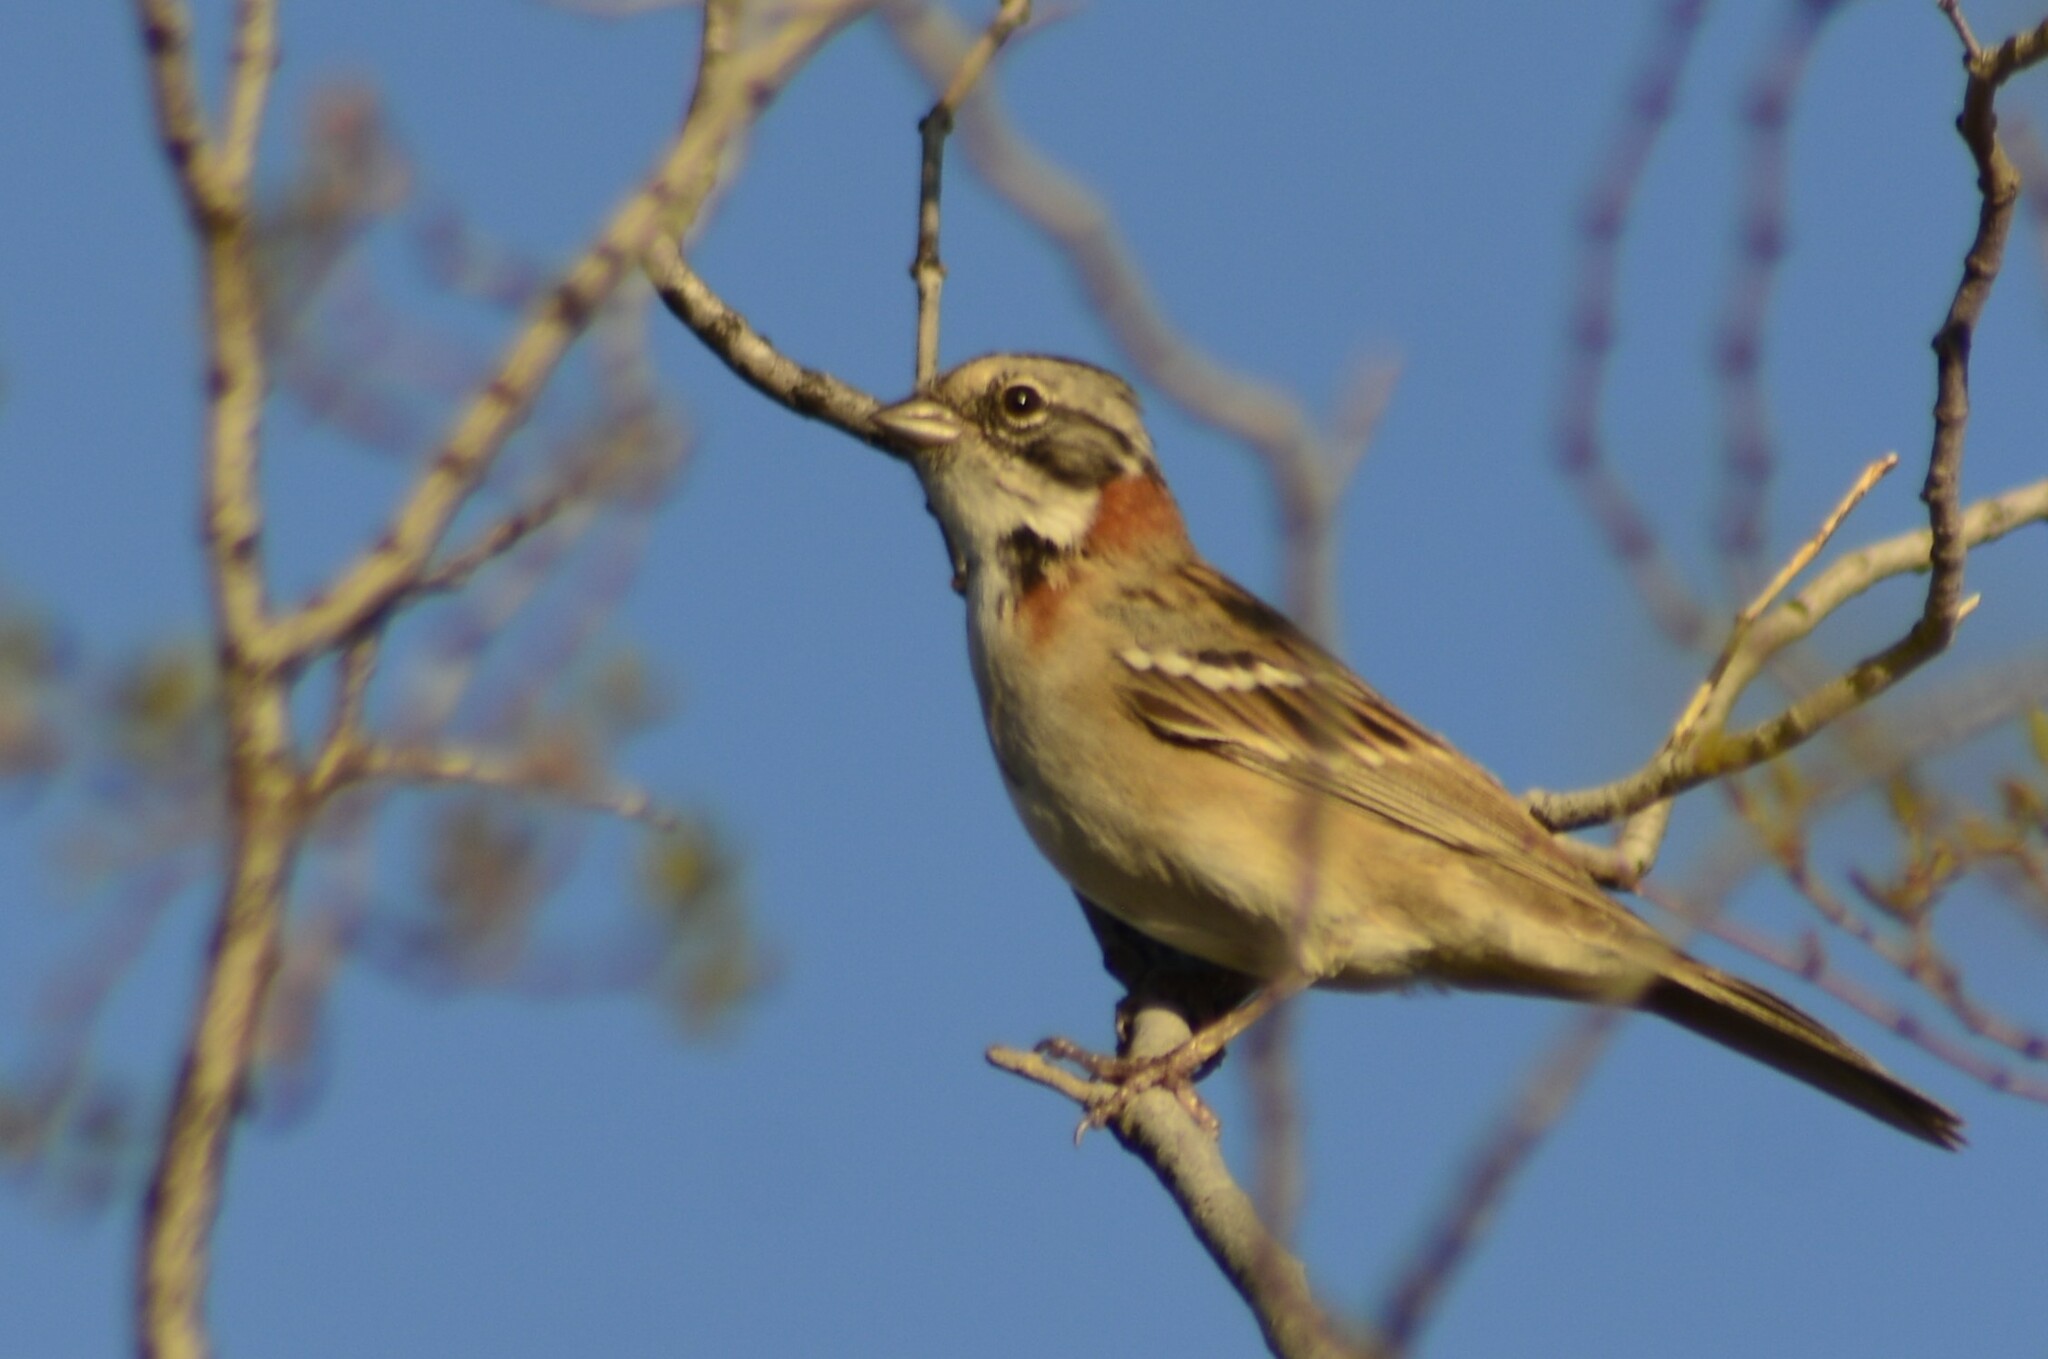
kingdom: Animalia
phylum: Chordata
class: Aves
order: Passeriformes
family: Passerellidae
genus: Zonotrichia
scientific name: Zonotrichia capensis
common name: Rufous-collared sparrow
